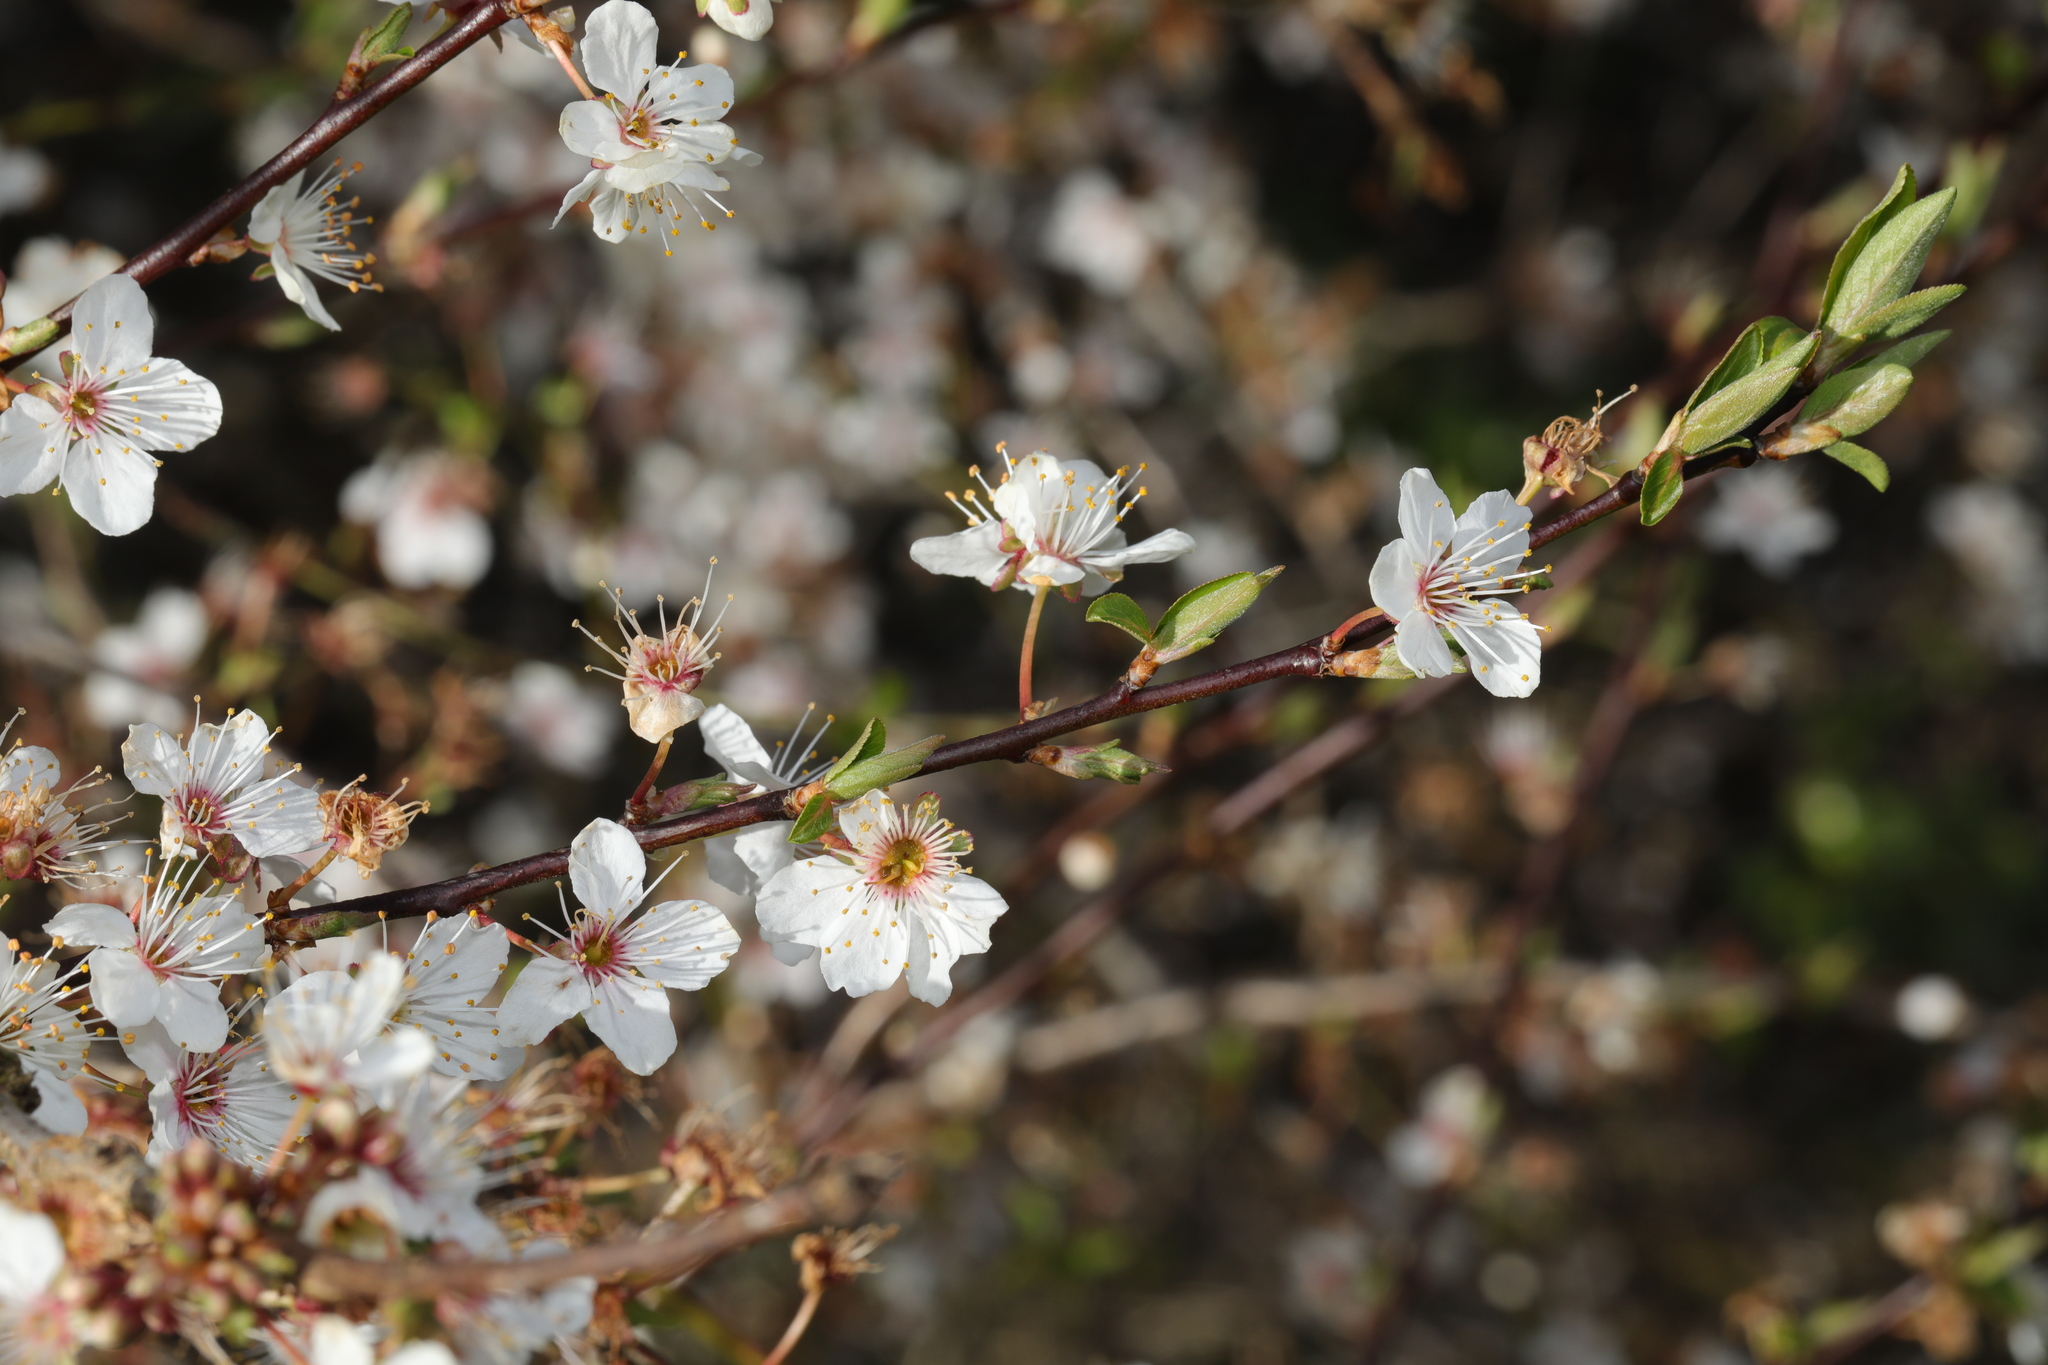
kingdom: Plantae
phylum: Tracheophyta
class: Magnoliopsida
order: Rosales
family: Rosaceae
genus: Prunus
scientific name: Prunus cerasifera
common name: Cherry plum
